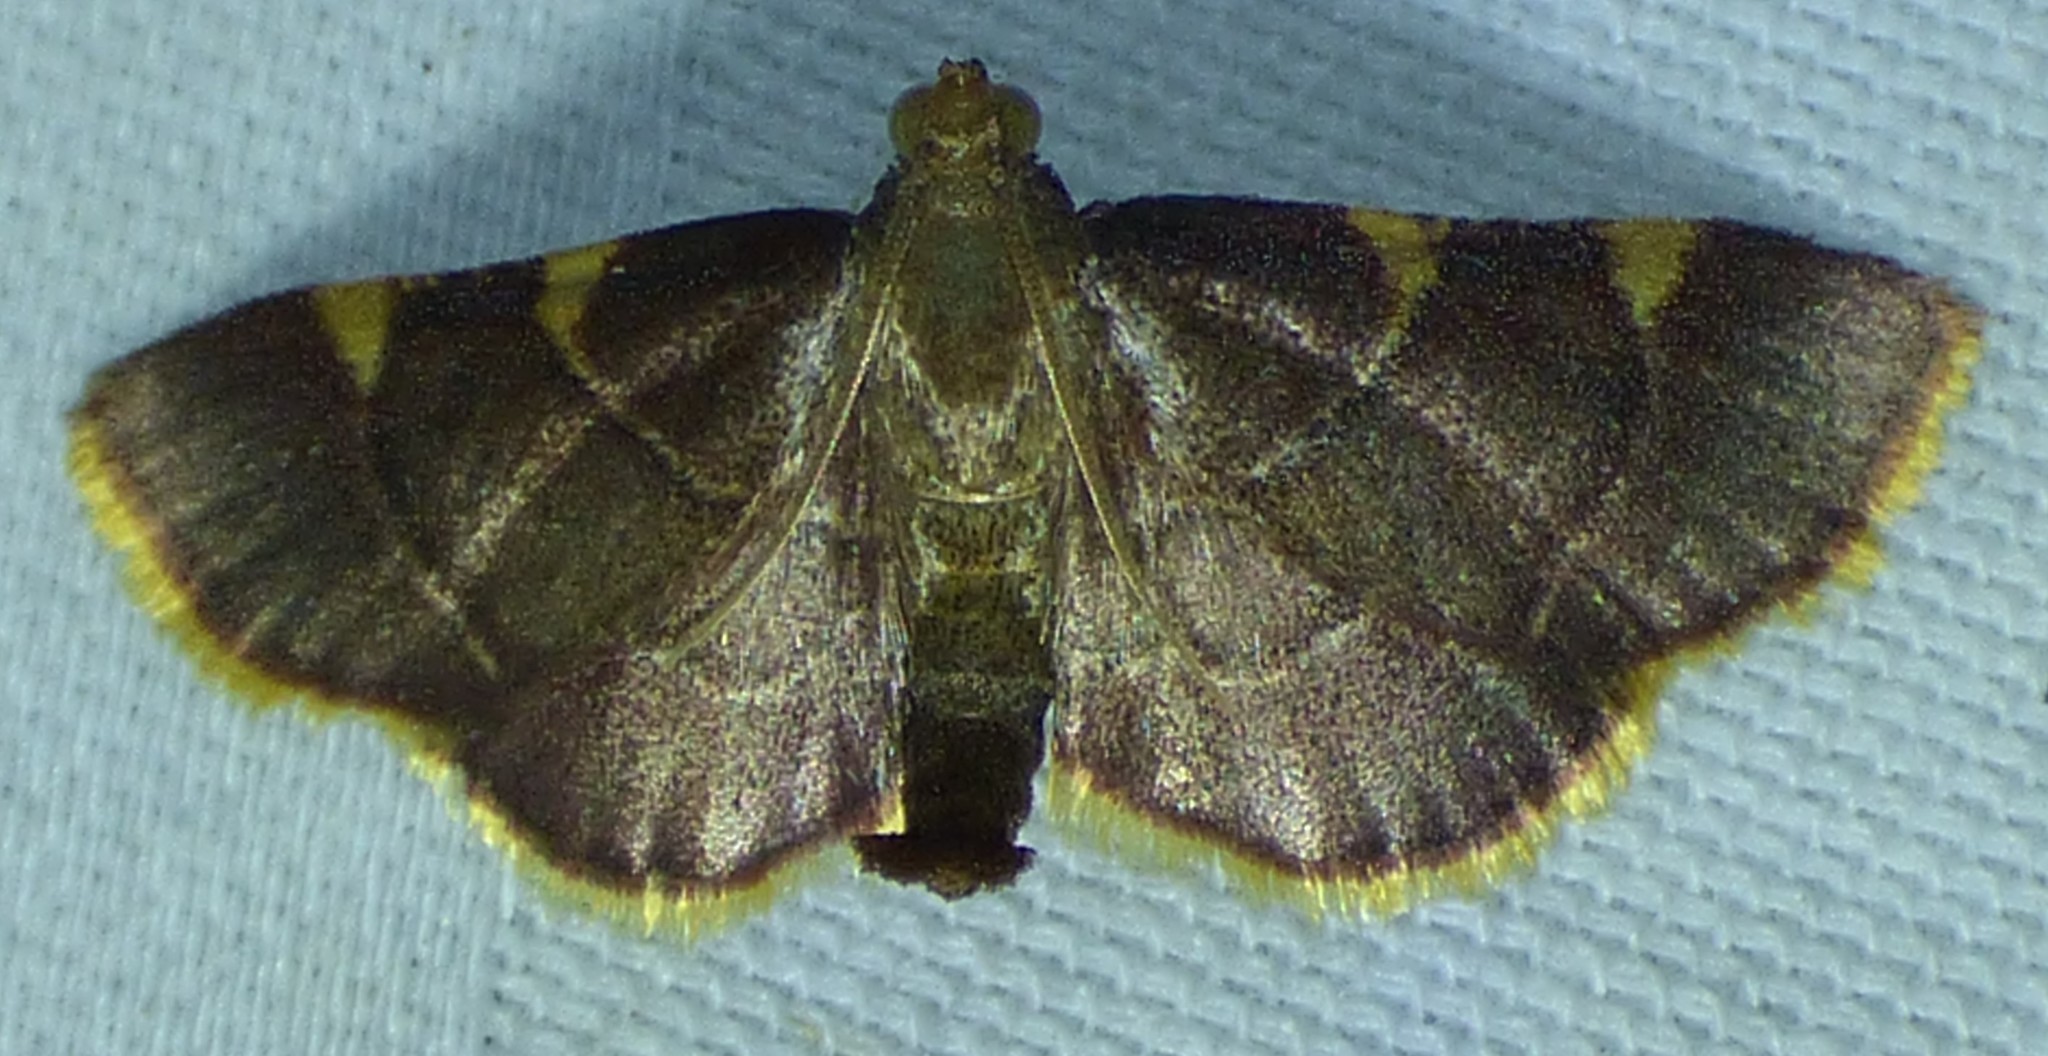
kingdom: Animalia
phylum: Arthropoda
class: Insecta
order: Lepidoptera
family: Pyralidae
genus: Hypsopygia
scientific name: Hypsopygia olinalis
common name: Yellow-fringed dolichomia moth
